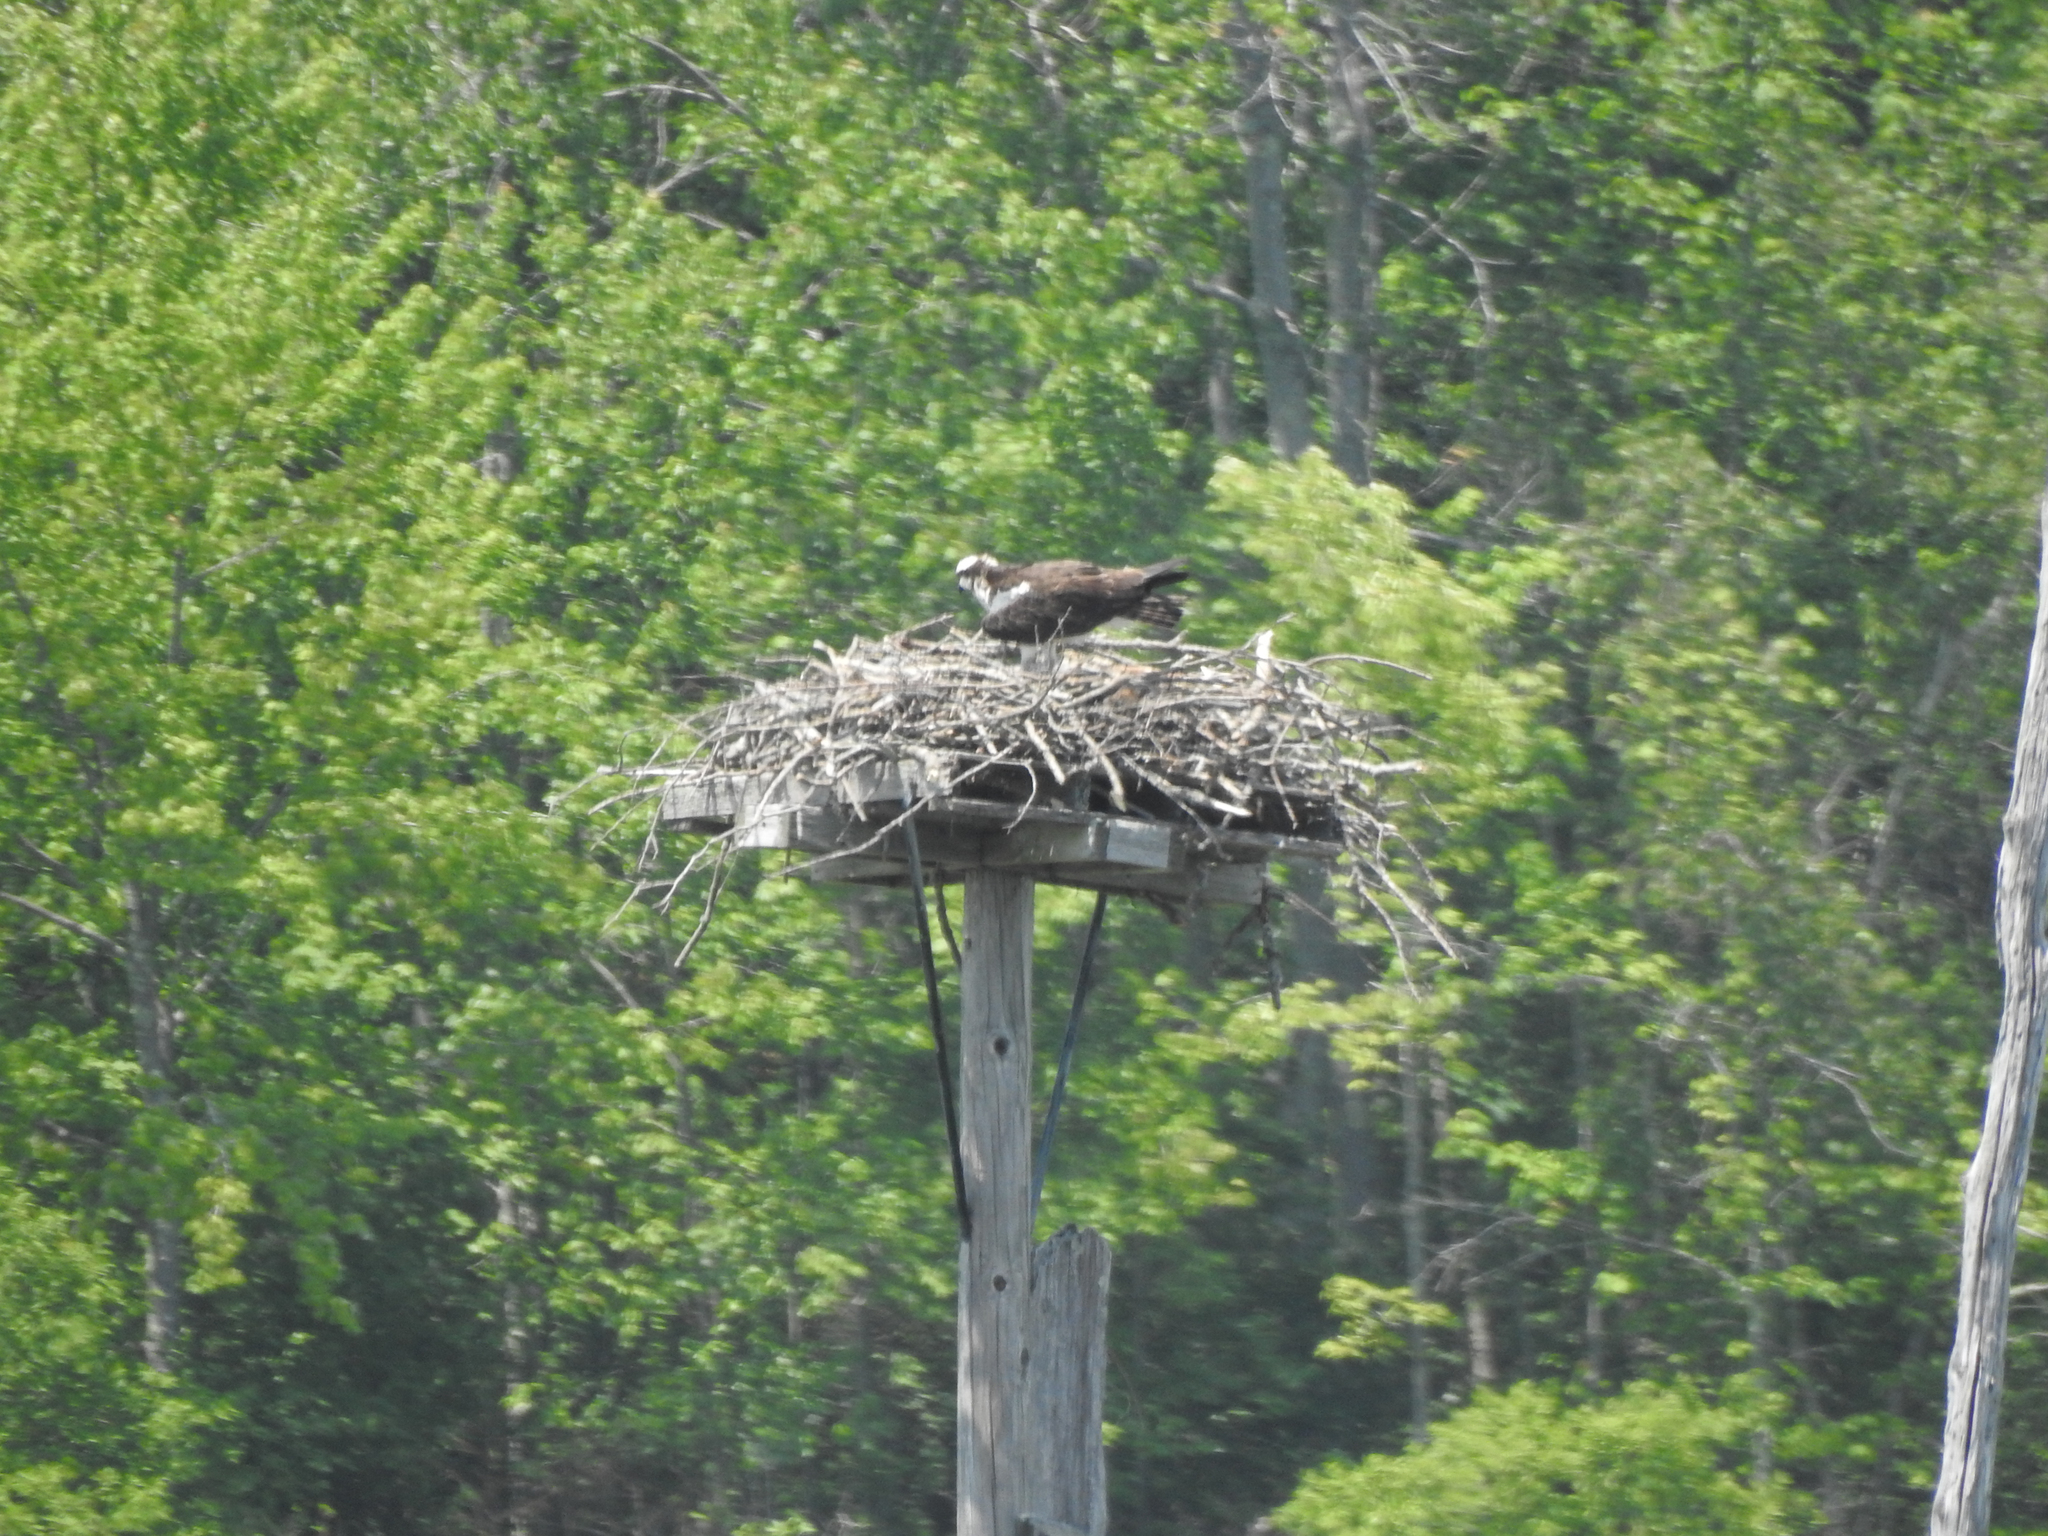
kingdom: Animalia
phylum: Chordata
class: Aves
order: Accipitriformes
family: Pandionidae
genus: Pandion
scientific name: Pandion haliaetus
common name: Osprey
